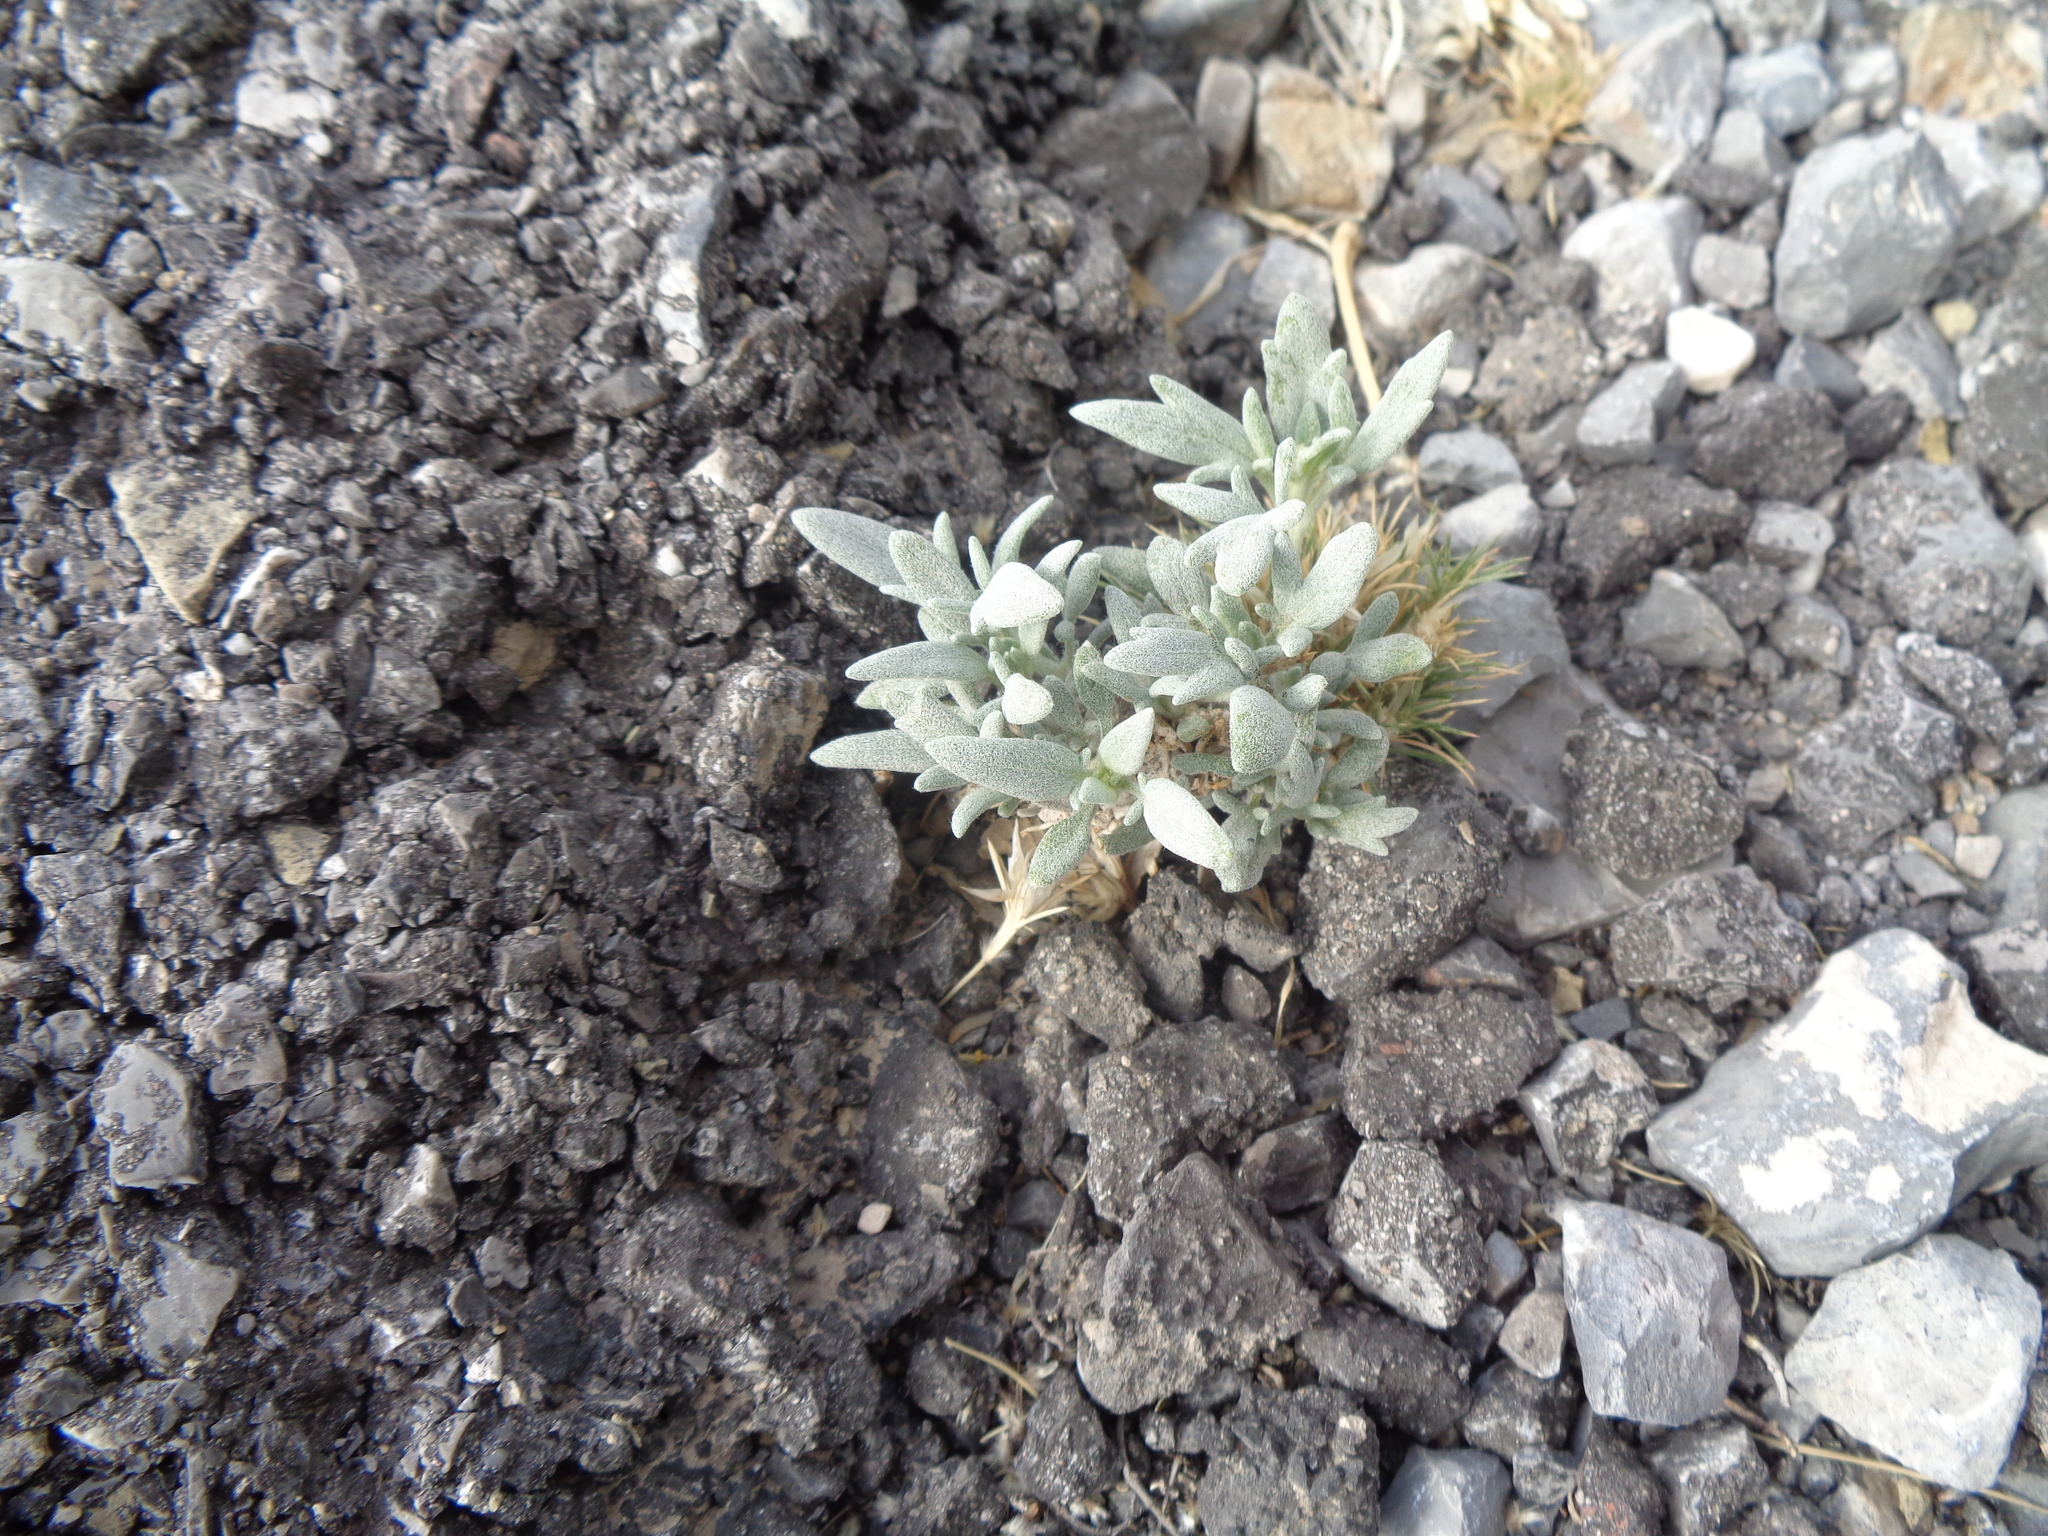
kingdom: Plantae
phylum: Tracheophyta
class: Magnoliopsida
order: Asterales
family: Asteraceae
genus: Picradeniopsis
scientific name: Picradeniopsis absinthifolia
